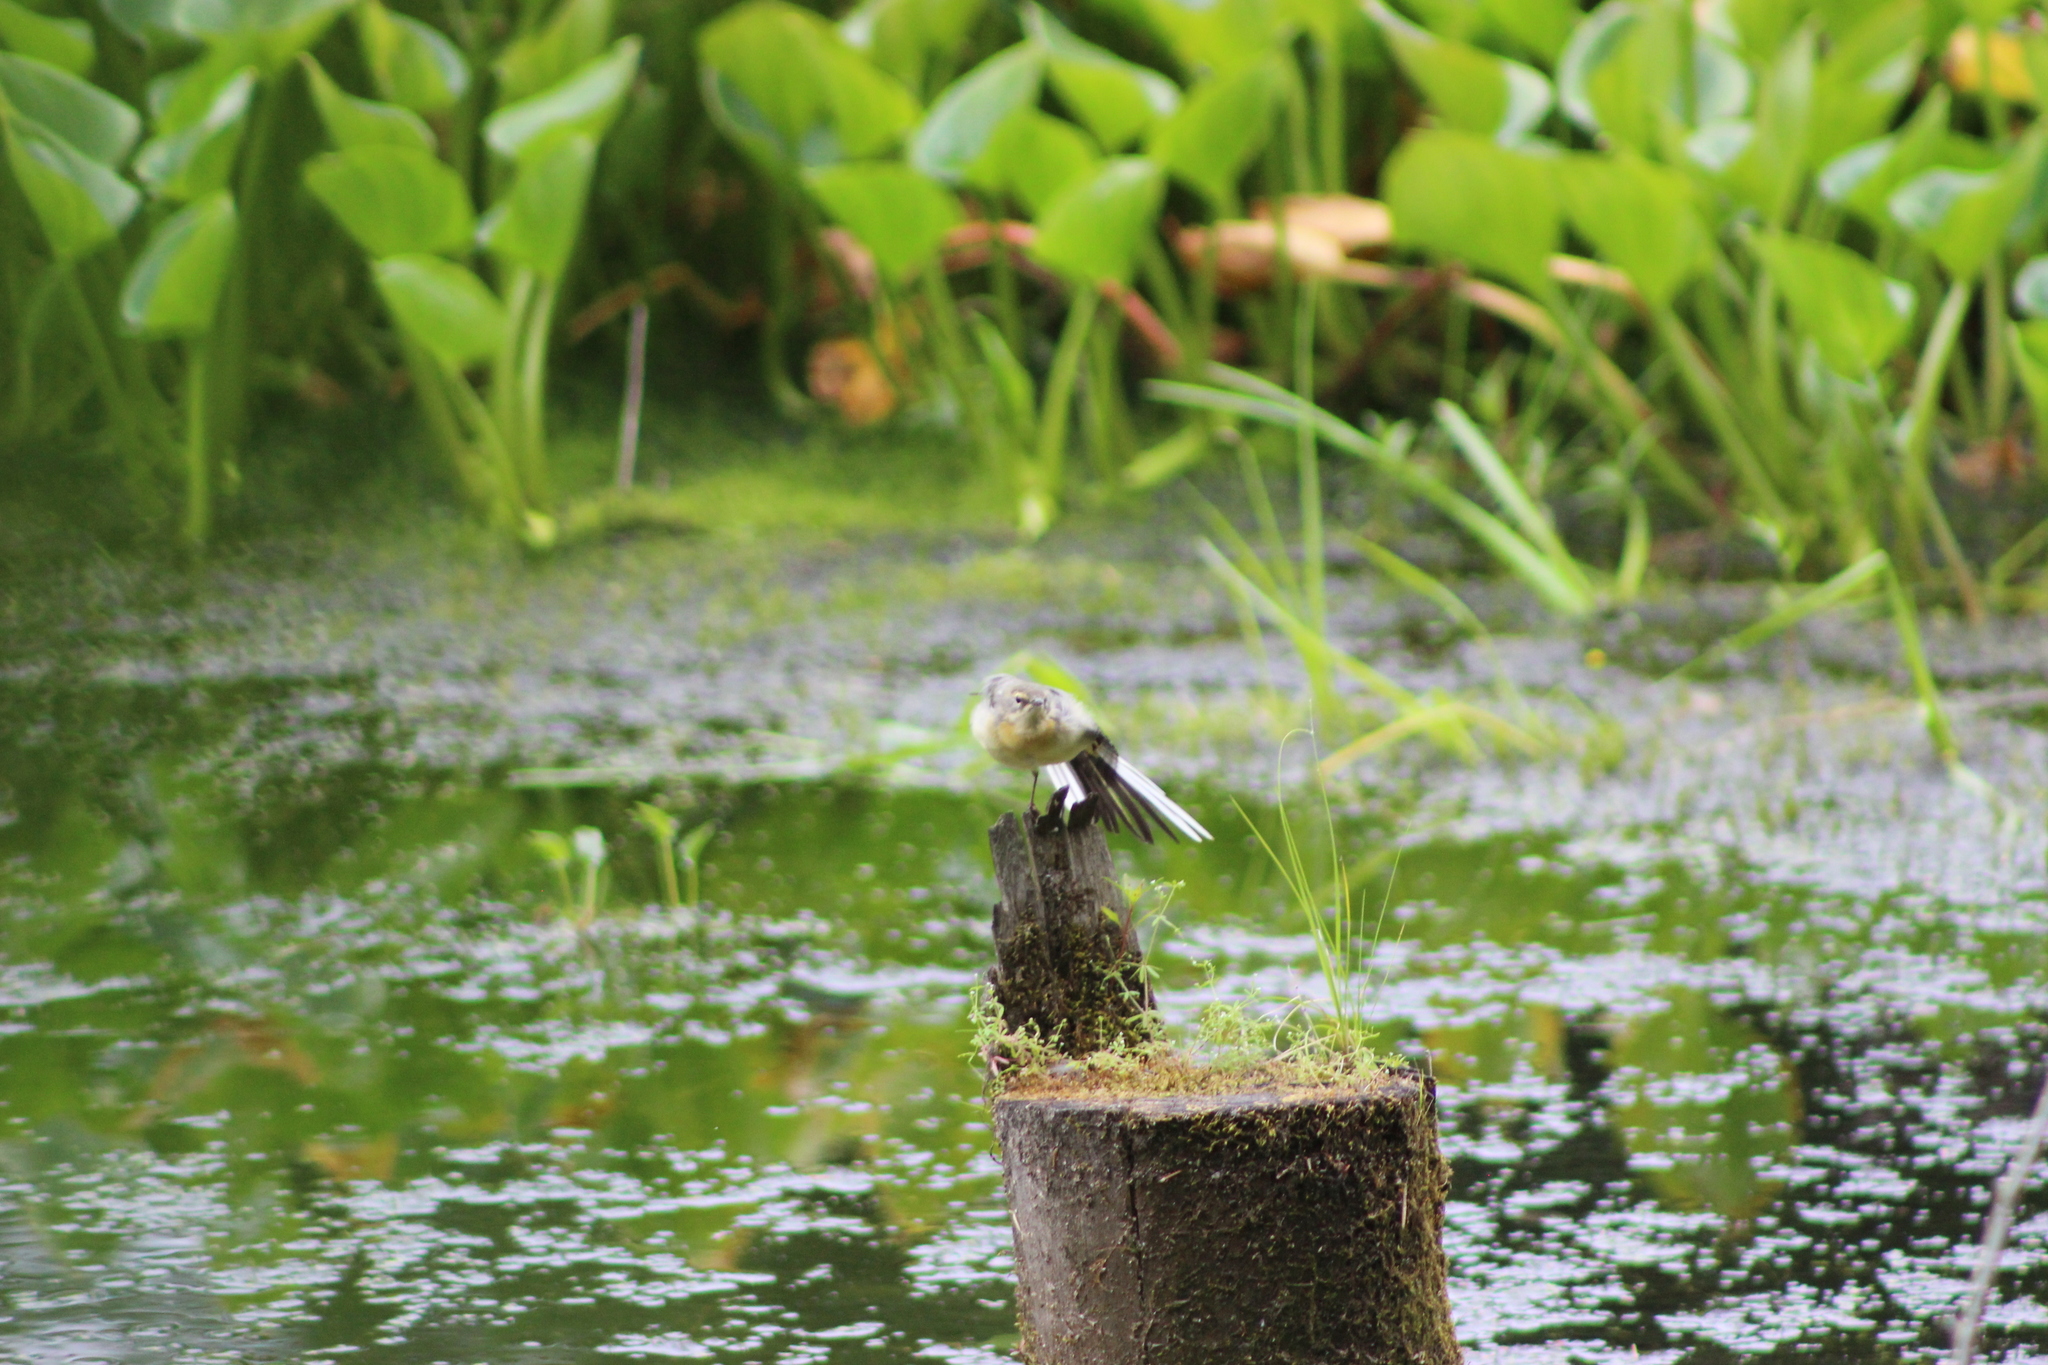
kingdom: Animalia
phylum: Chordata
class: Aves
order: Passeriformes
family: Motacillidae
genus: Motacilla
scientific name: Motacilla cinerea
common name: Grey wagtail
